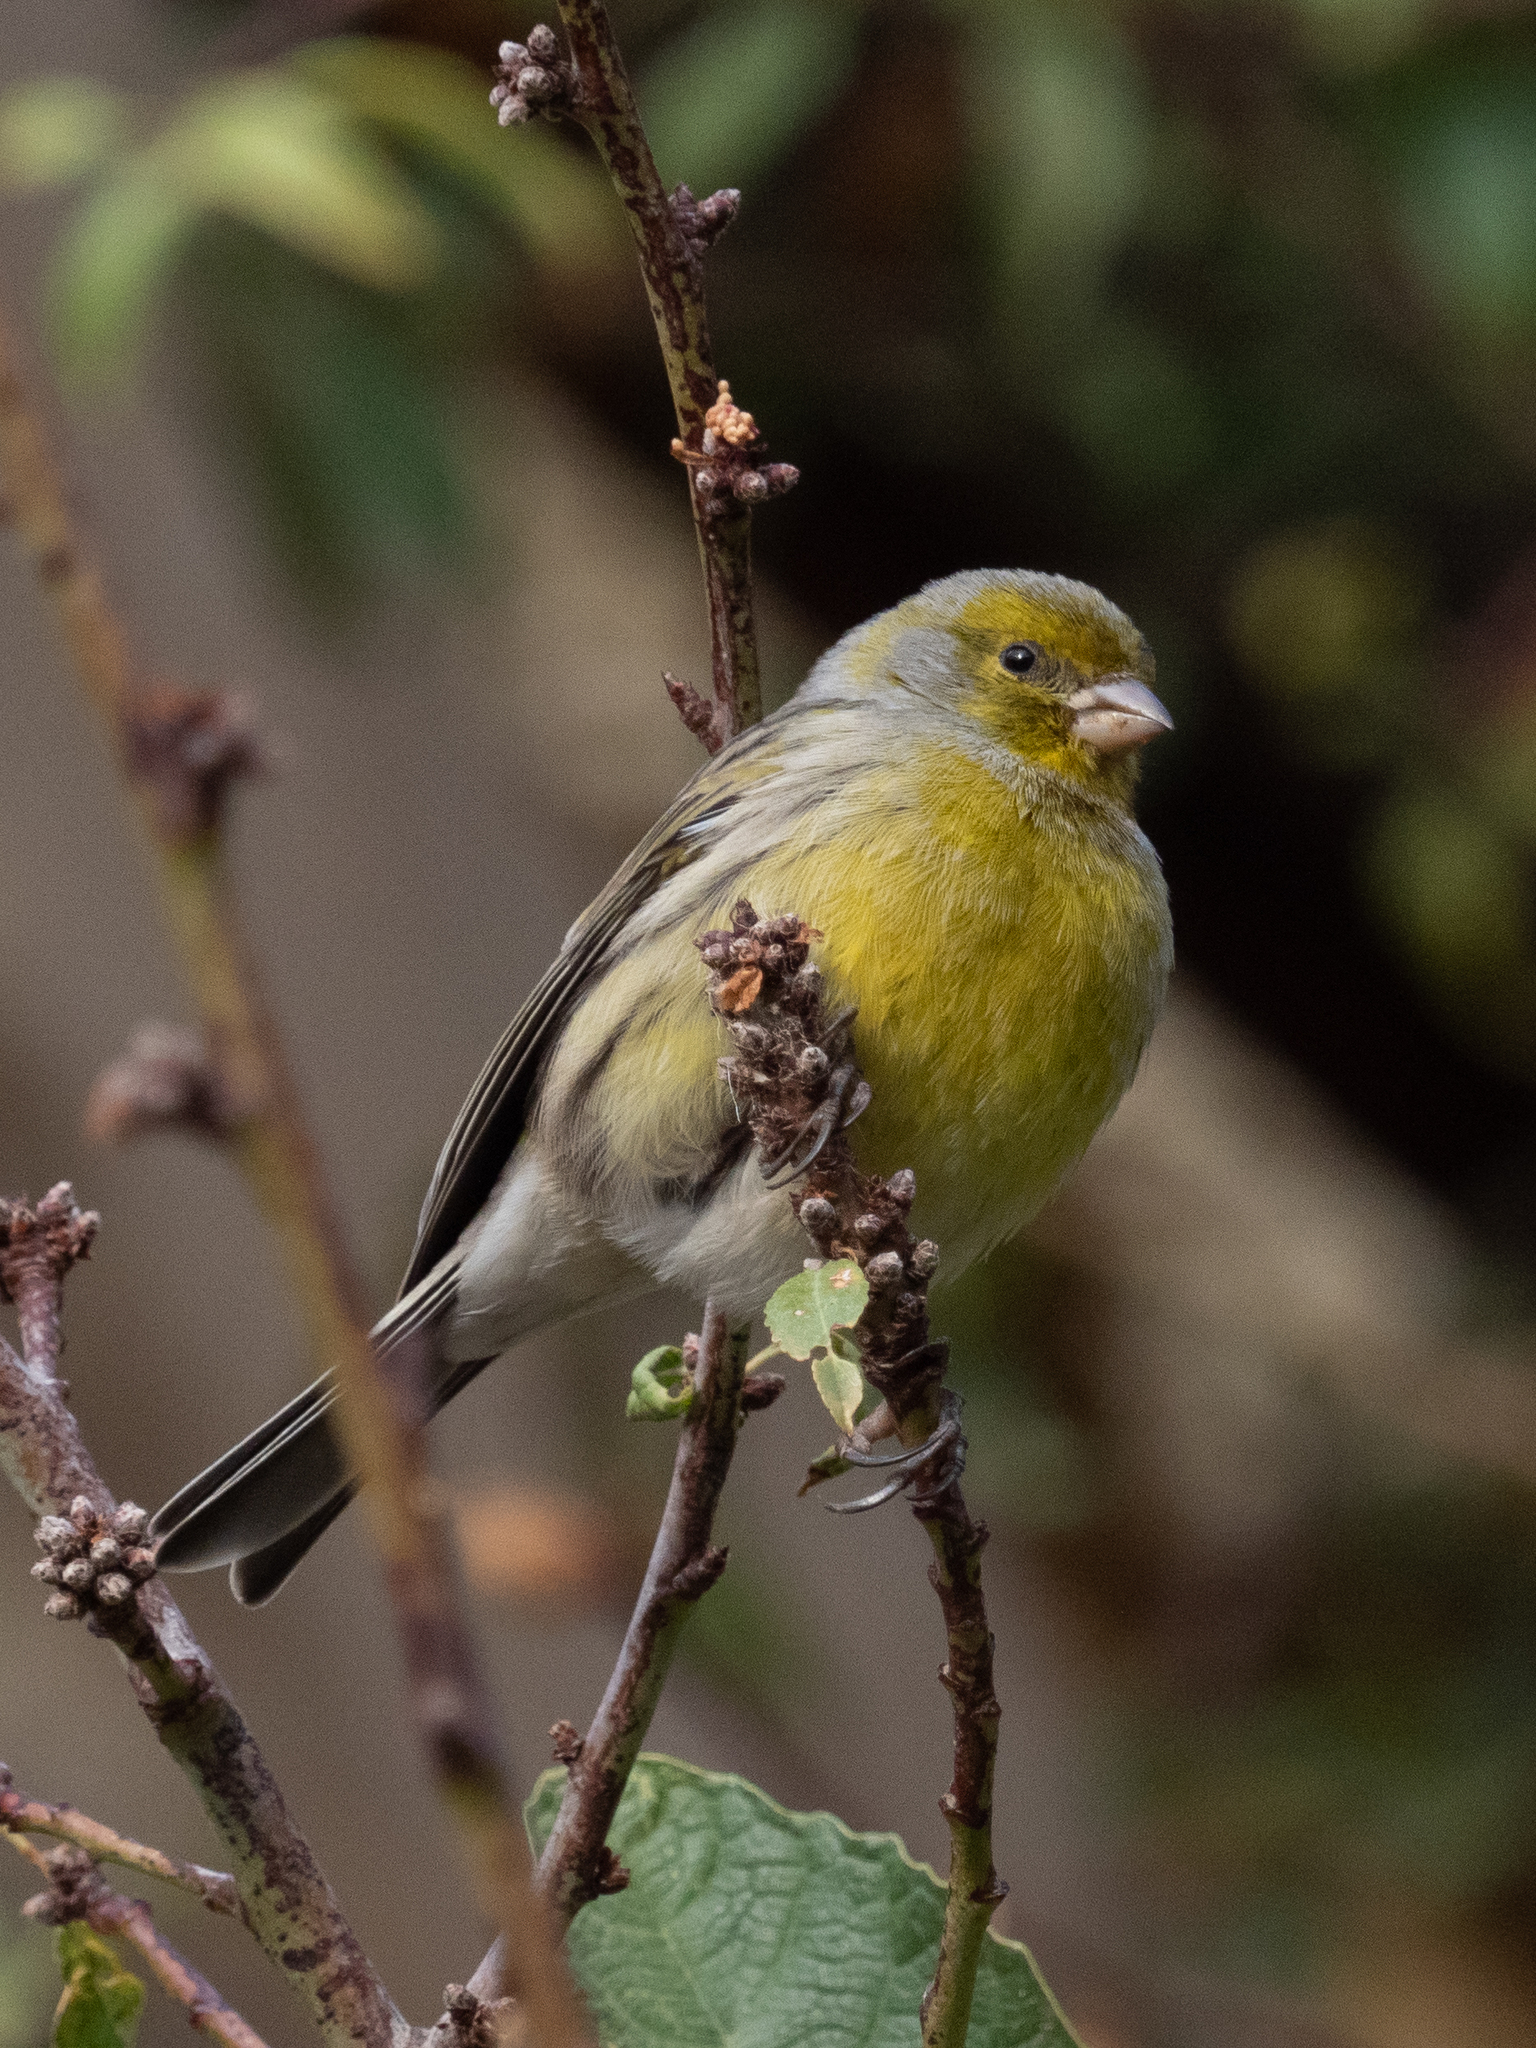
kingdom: Animalia
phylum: Chordata
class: Aves
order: Passeriformes
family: Fringillidae
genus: Serinus
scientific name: Serinus canaria
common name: Atlantic canary
